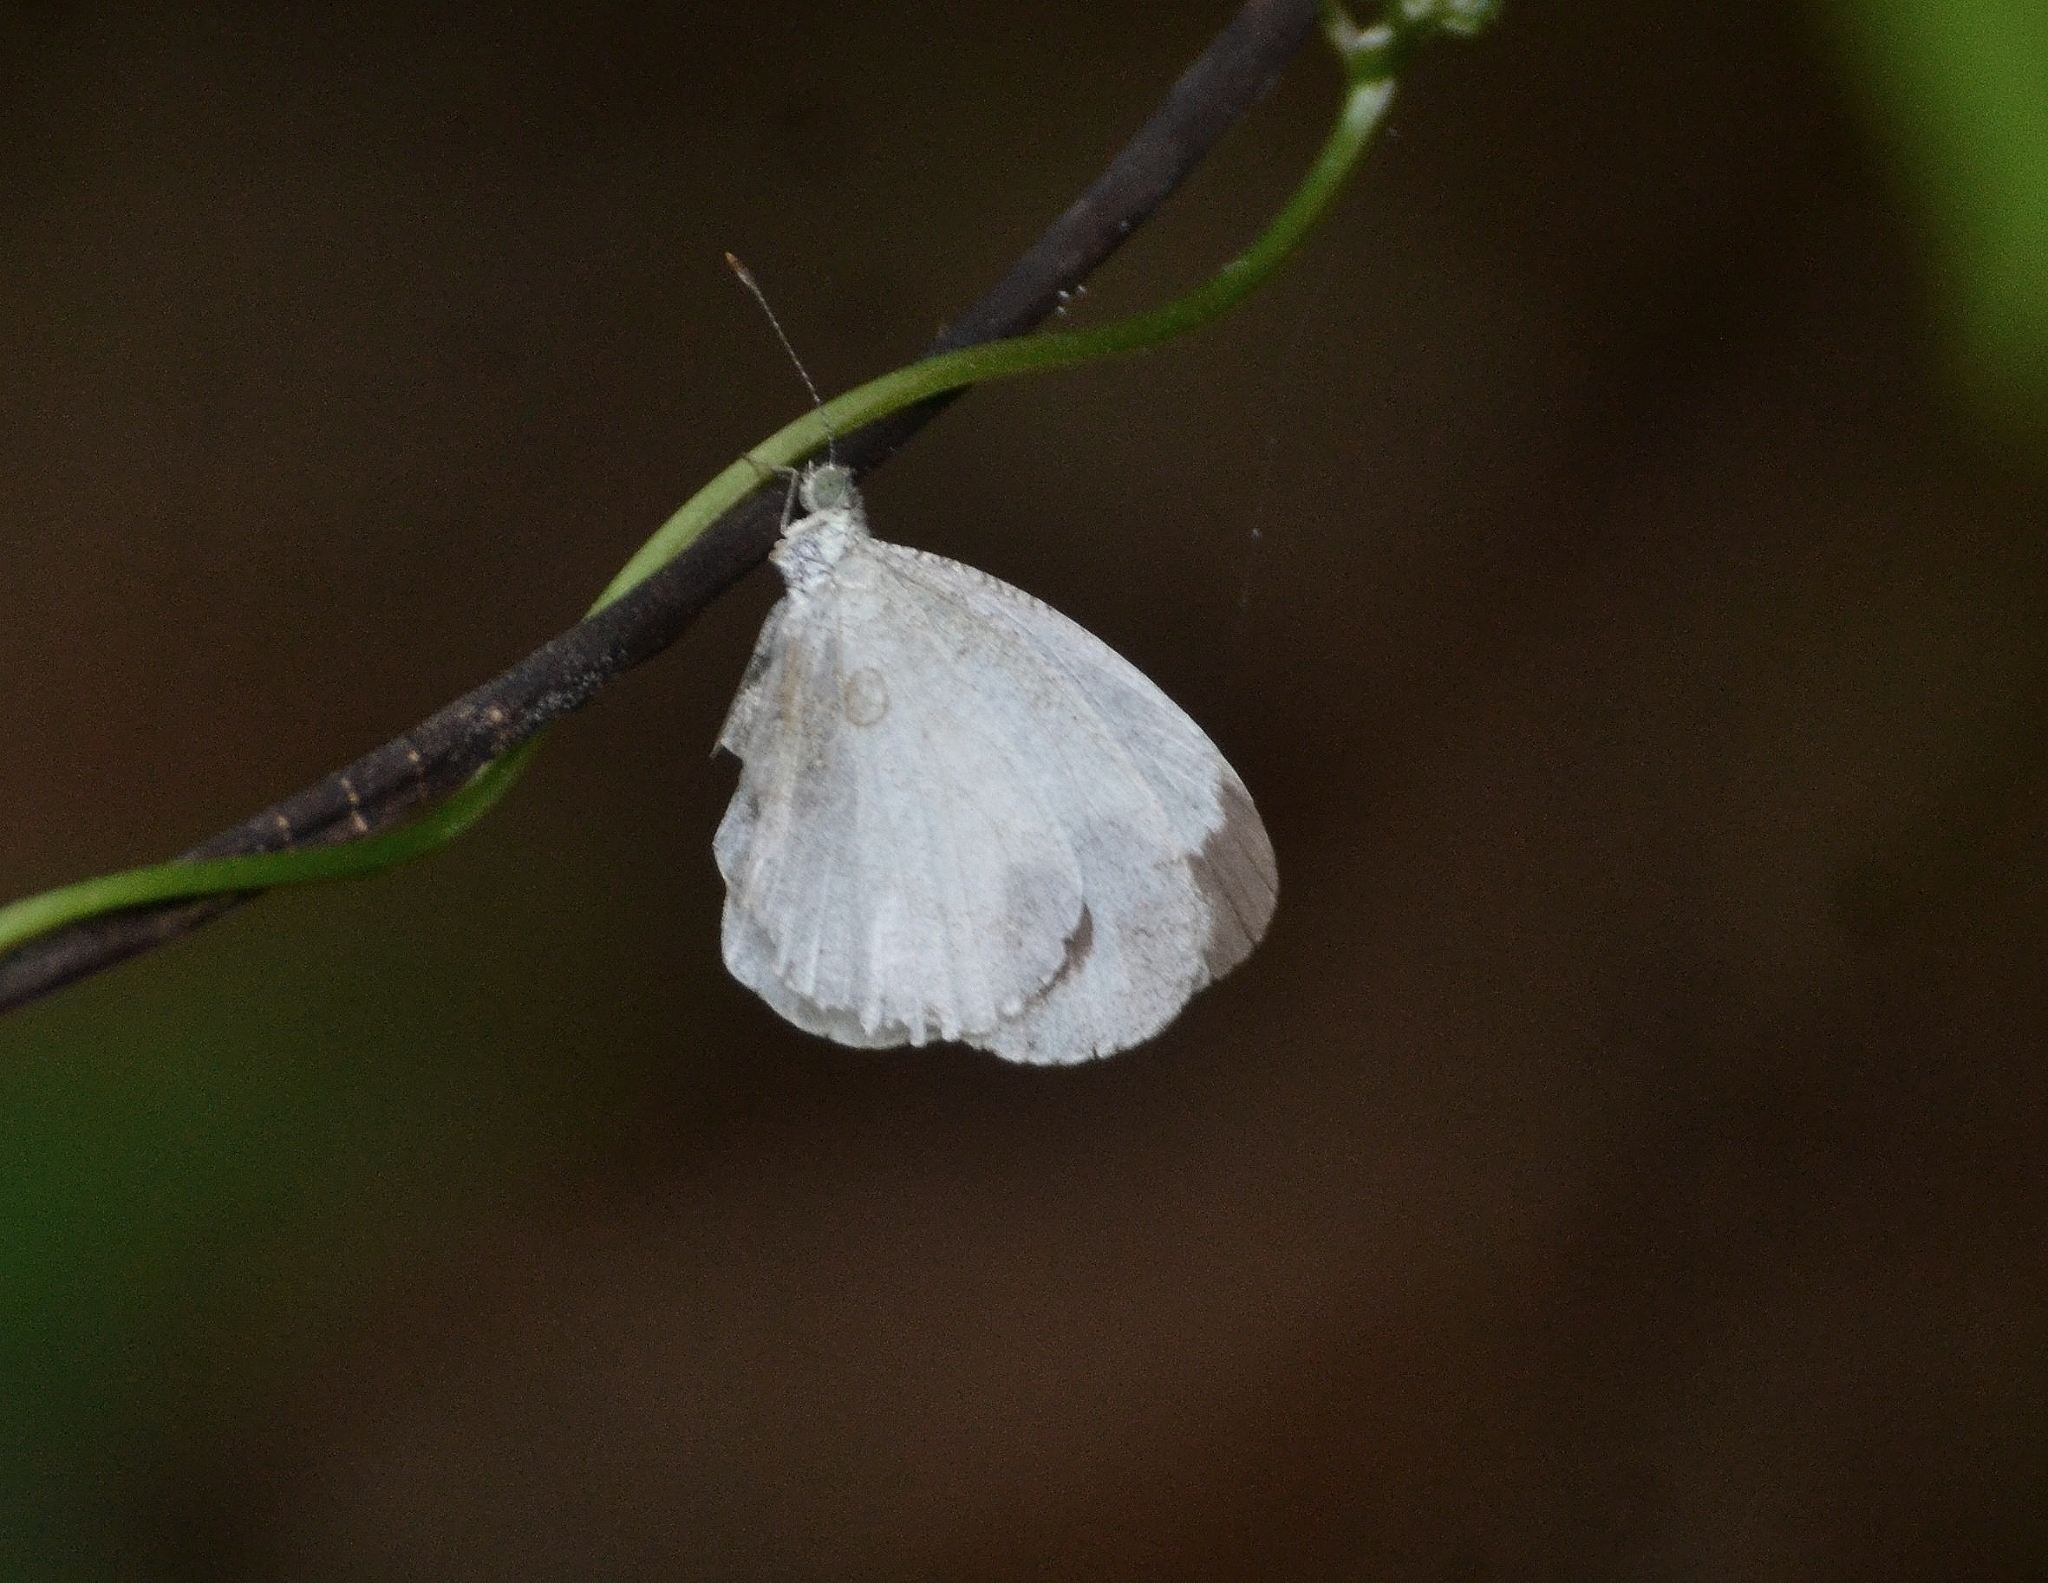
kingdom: Animalia
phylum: Arthropoda
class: Insecta
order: Lepidoptera
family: Pieridae
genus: Leptosia
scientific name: Leptosia nina
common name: Psyche
